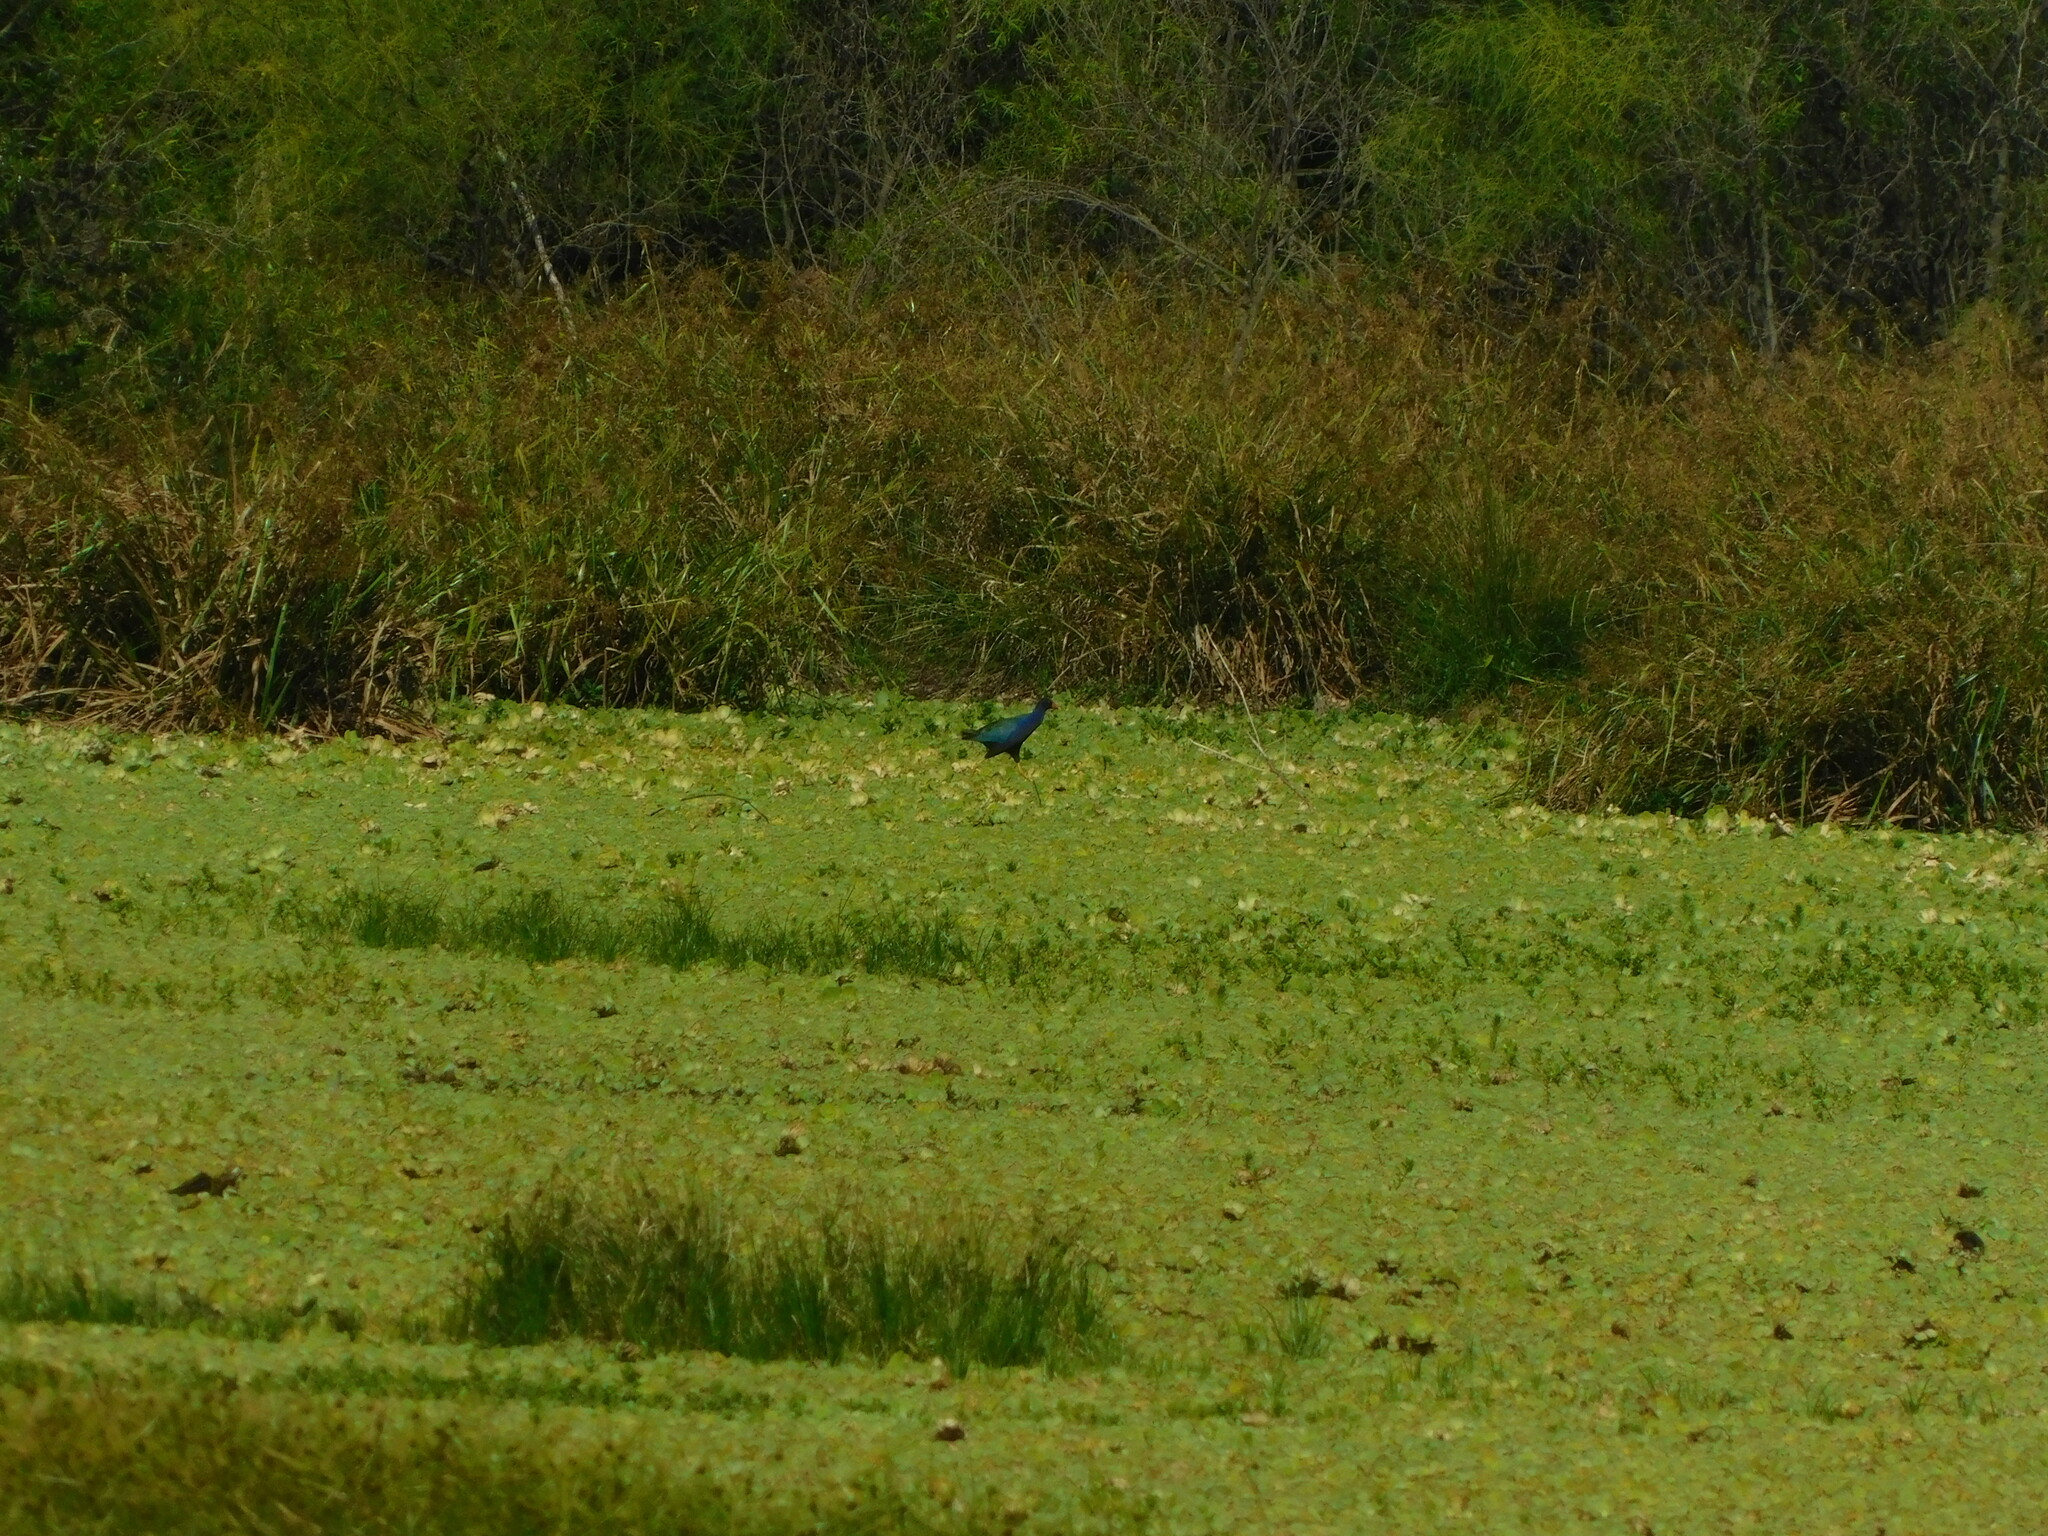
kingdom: Animalia
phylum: Chordata
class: Aves
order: Gruiformes
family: Rallidae
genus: Porphyrio
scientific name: Porphyrio martinica
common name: Purple gallinule
